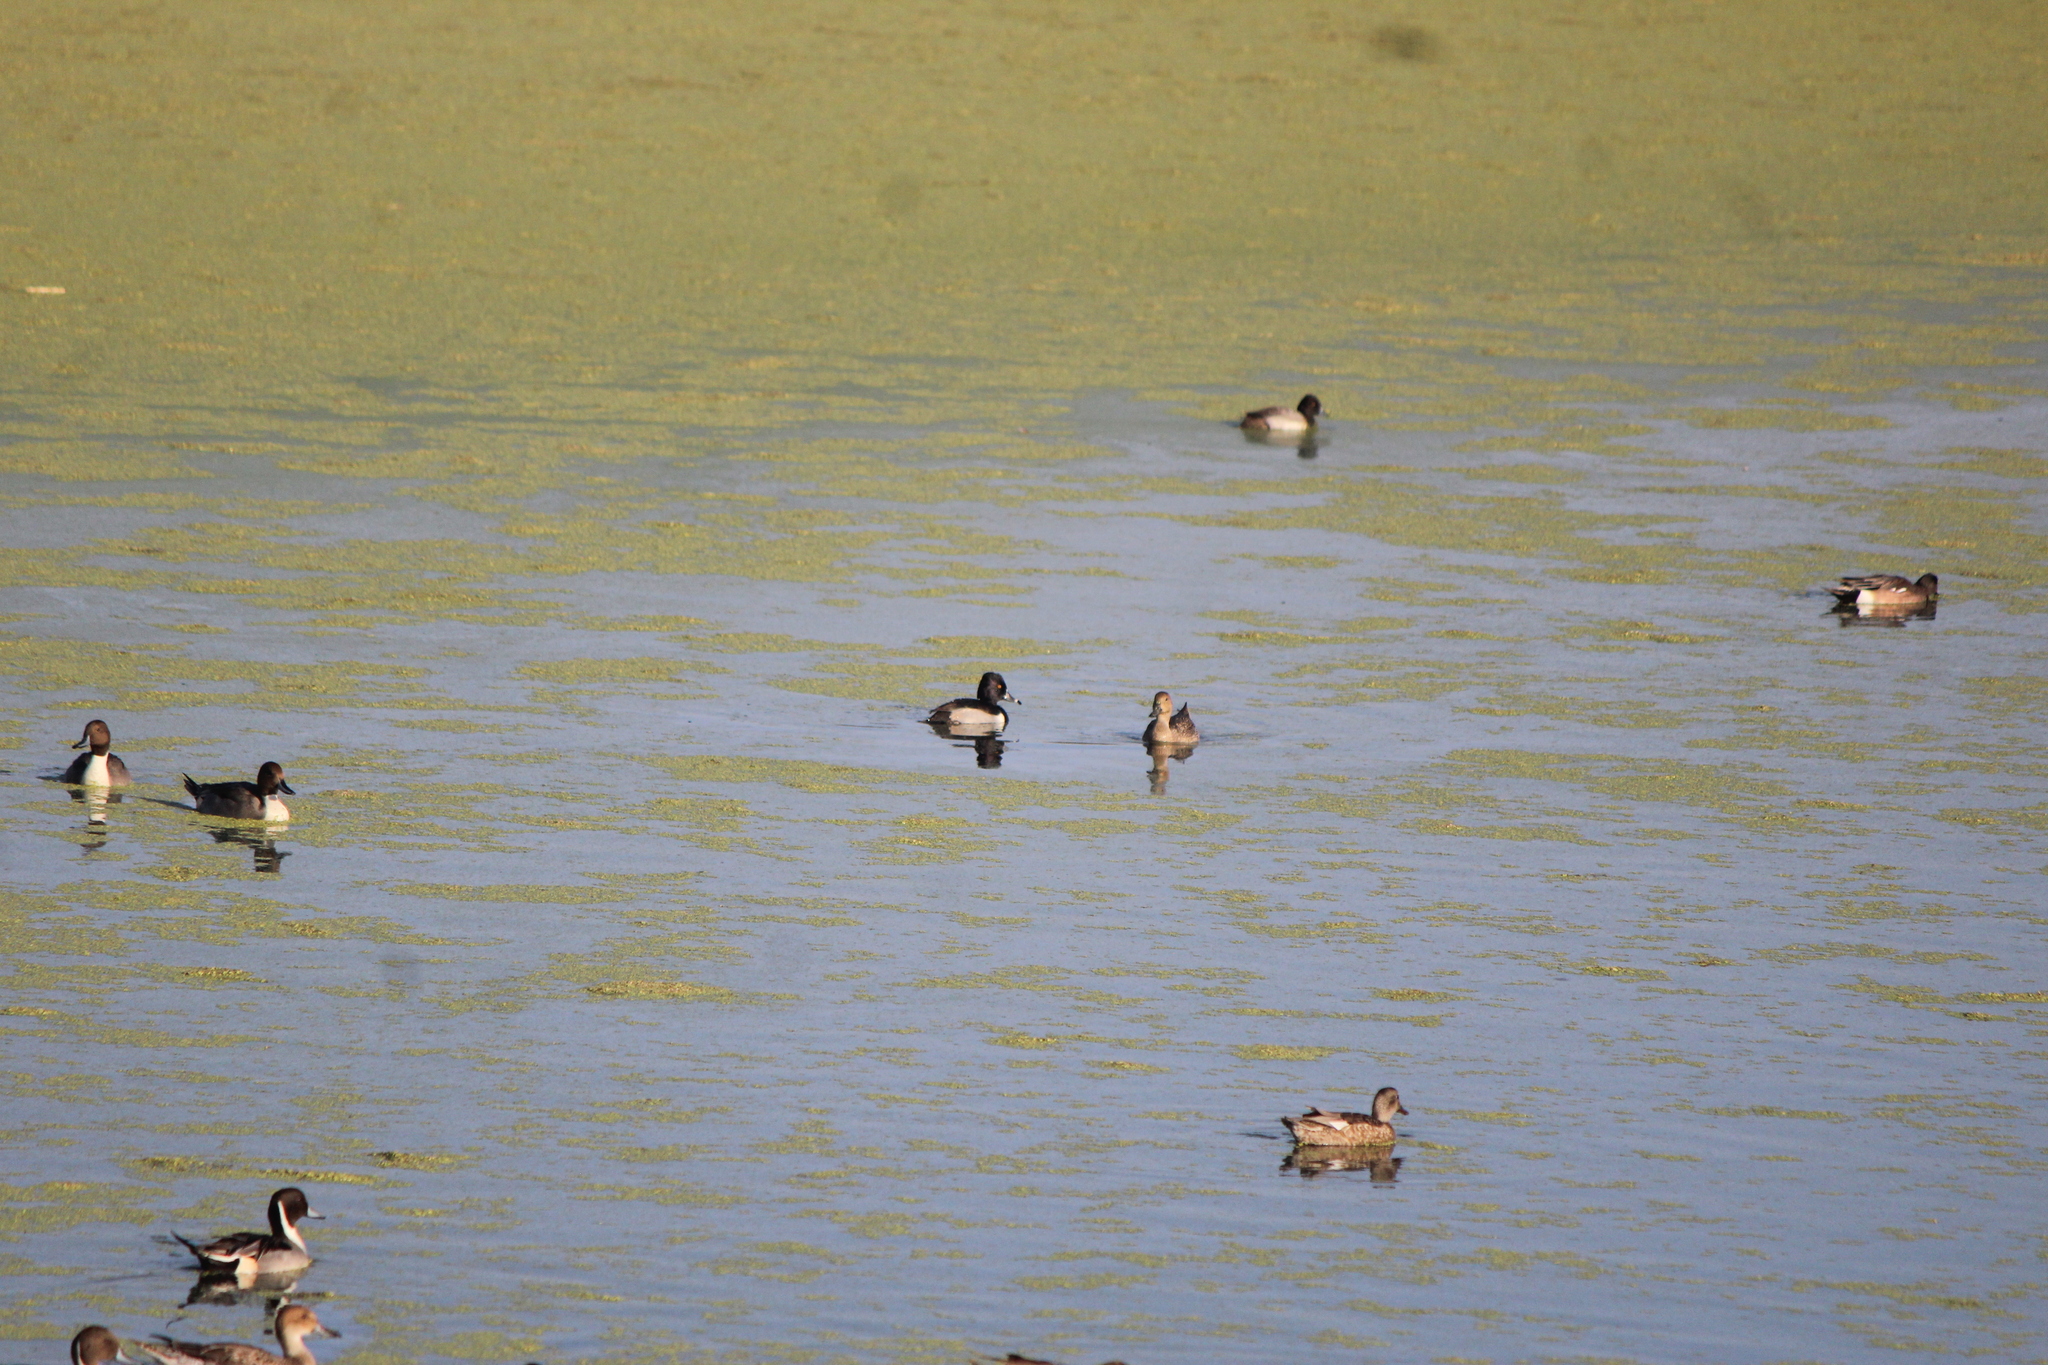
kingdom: Animalia
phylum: Chordata
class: Aves
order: Anseriformes
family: Anatidae
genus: Aythya
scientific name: Aythya collaris
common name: Ring-necked duck
